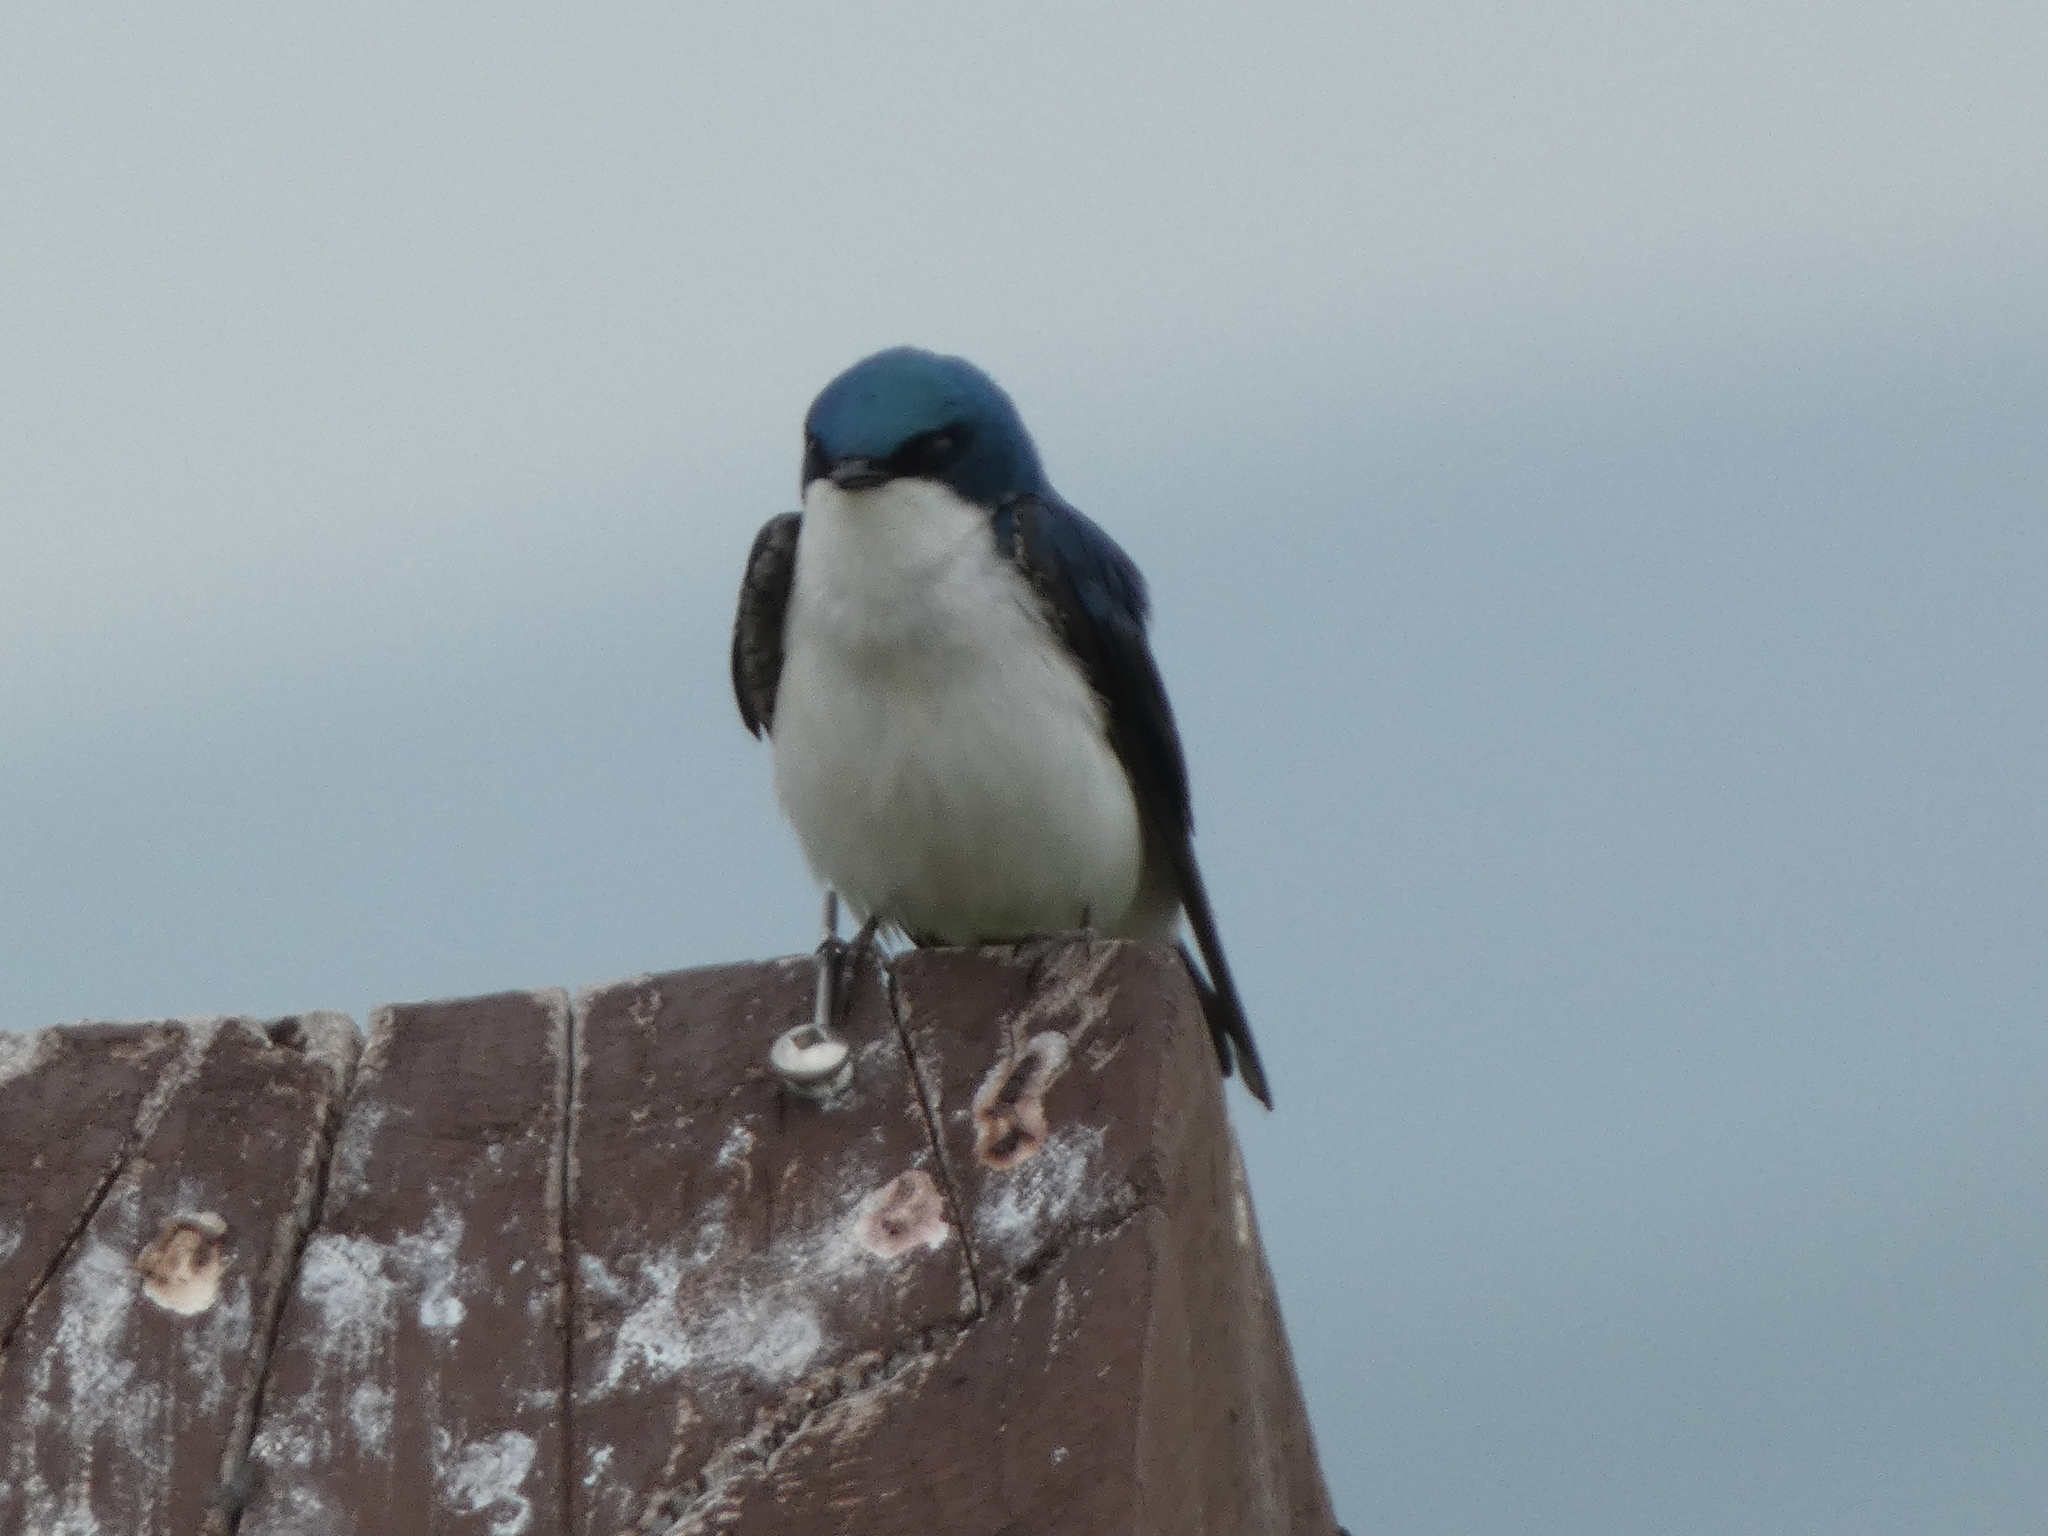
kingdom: Animalia
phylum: Chordata
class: Aves
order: Passeriformes
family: Hirundinidae
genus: Tachycineta
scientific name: Tachycineta bicolor
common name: Tree swallow
